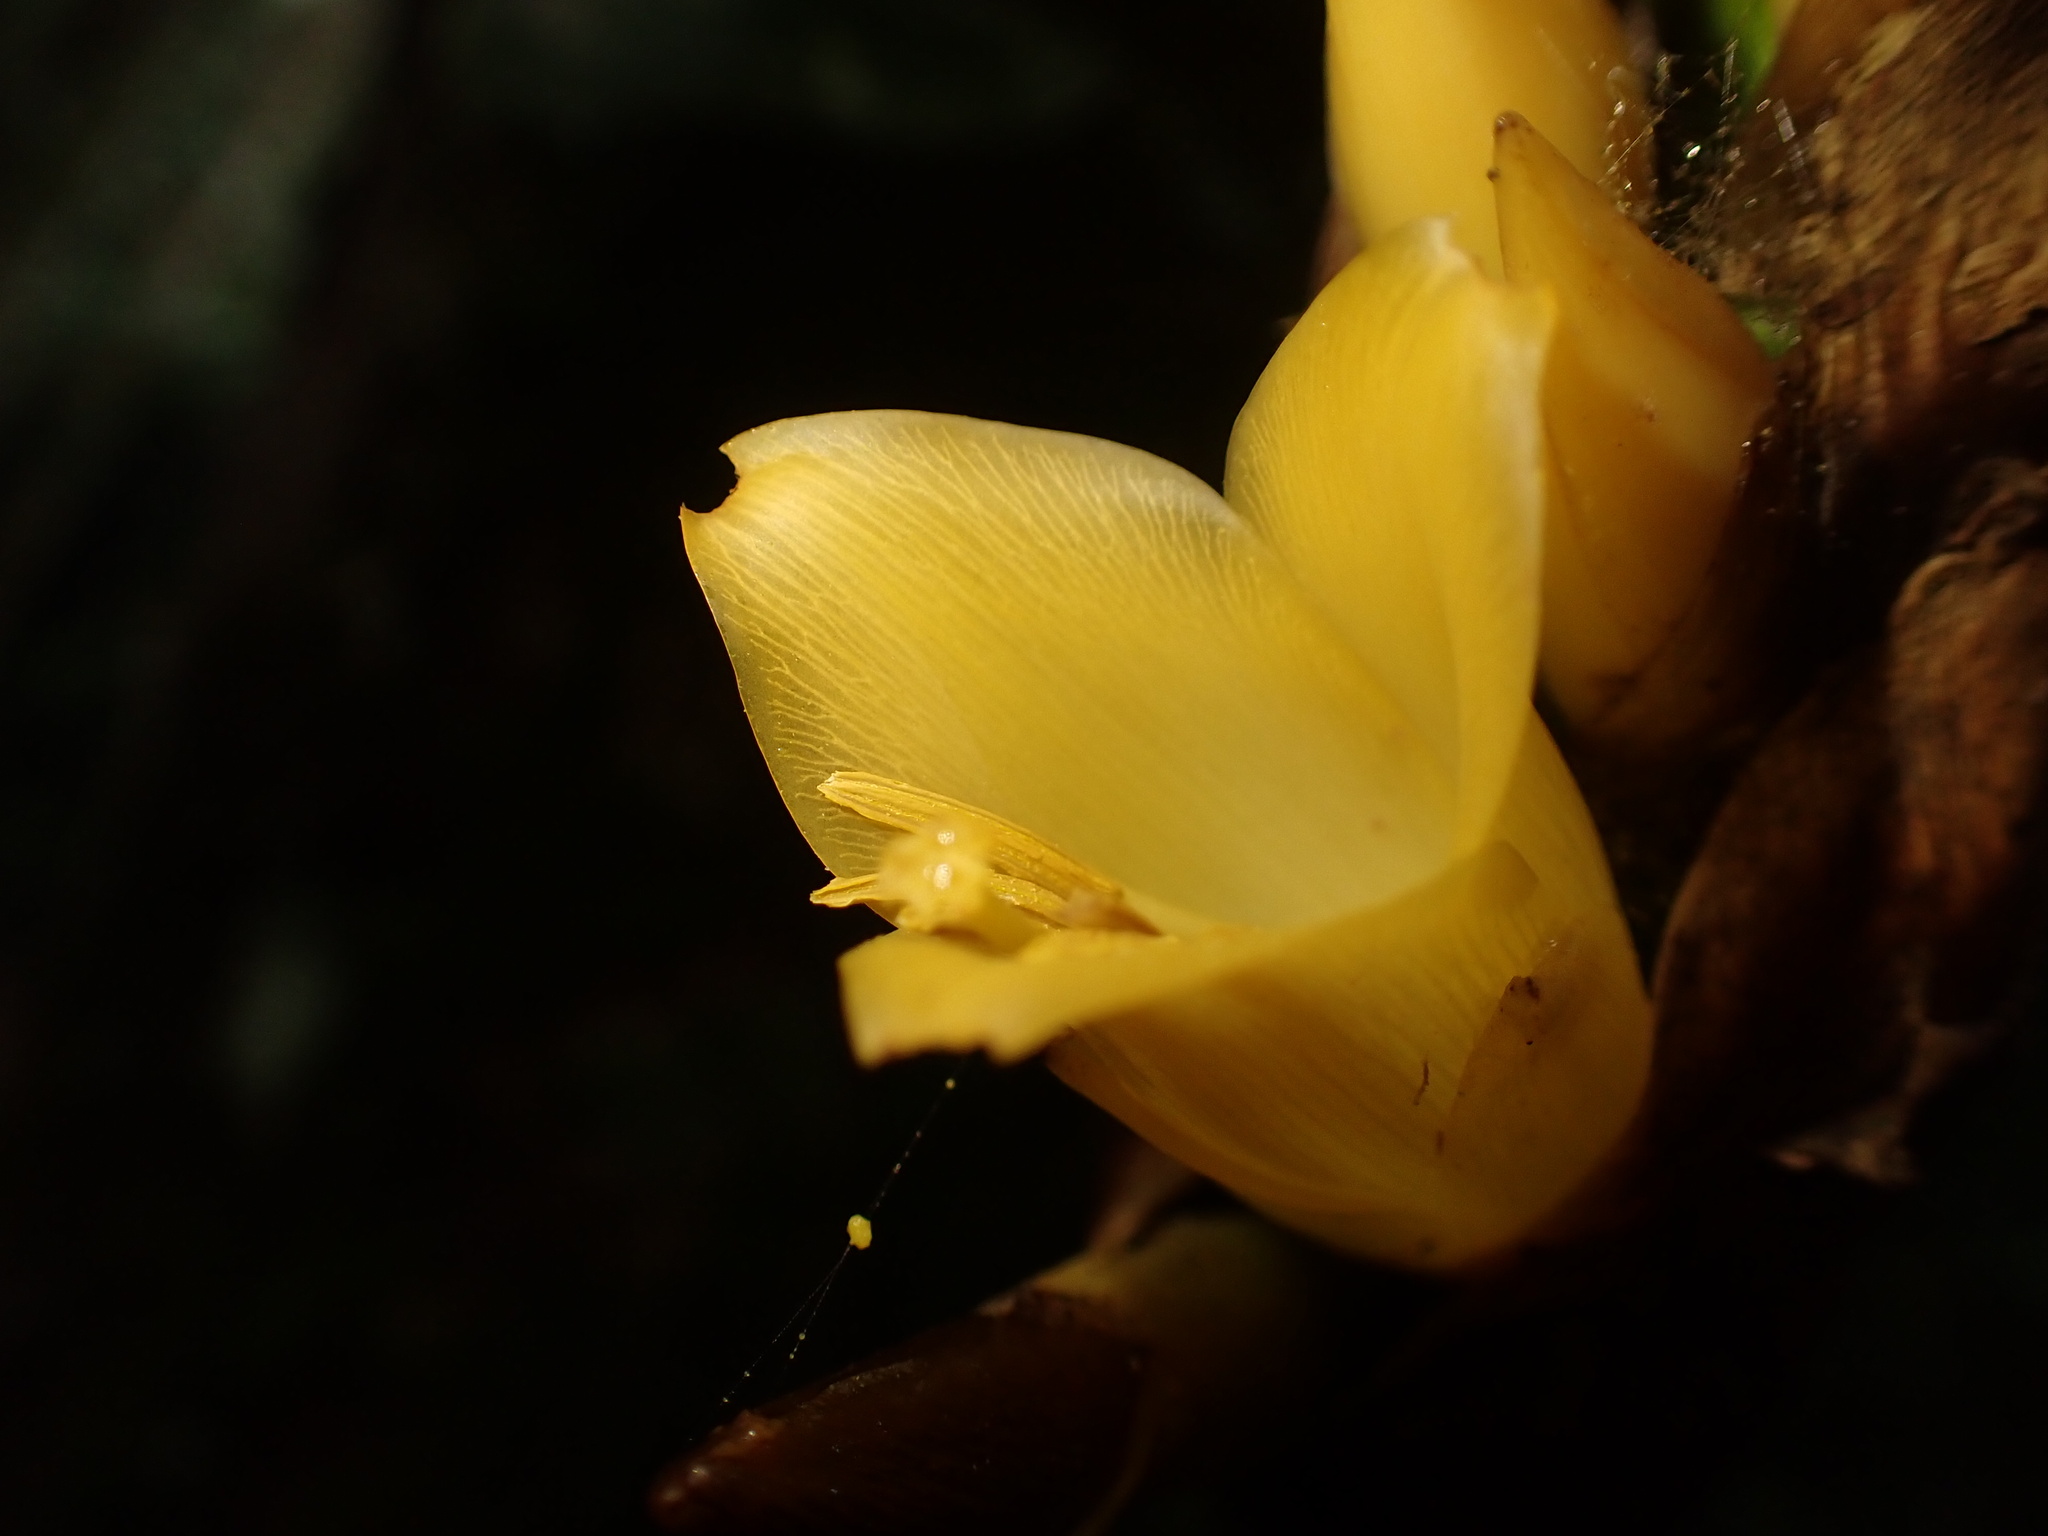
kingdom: Plantae
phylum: Tracheophyta
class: Liliopsida
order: Poales
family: Bromeliaceae
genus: Vriesea
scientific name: Vriesea longicaulis
